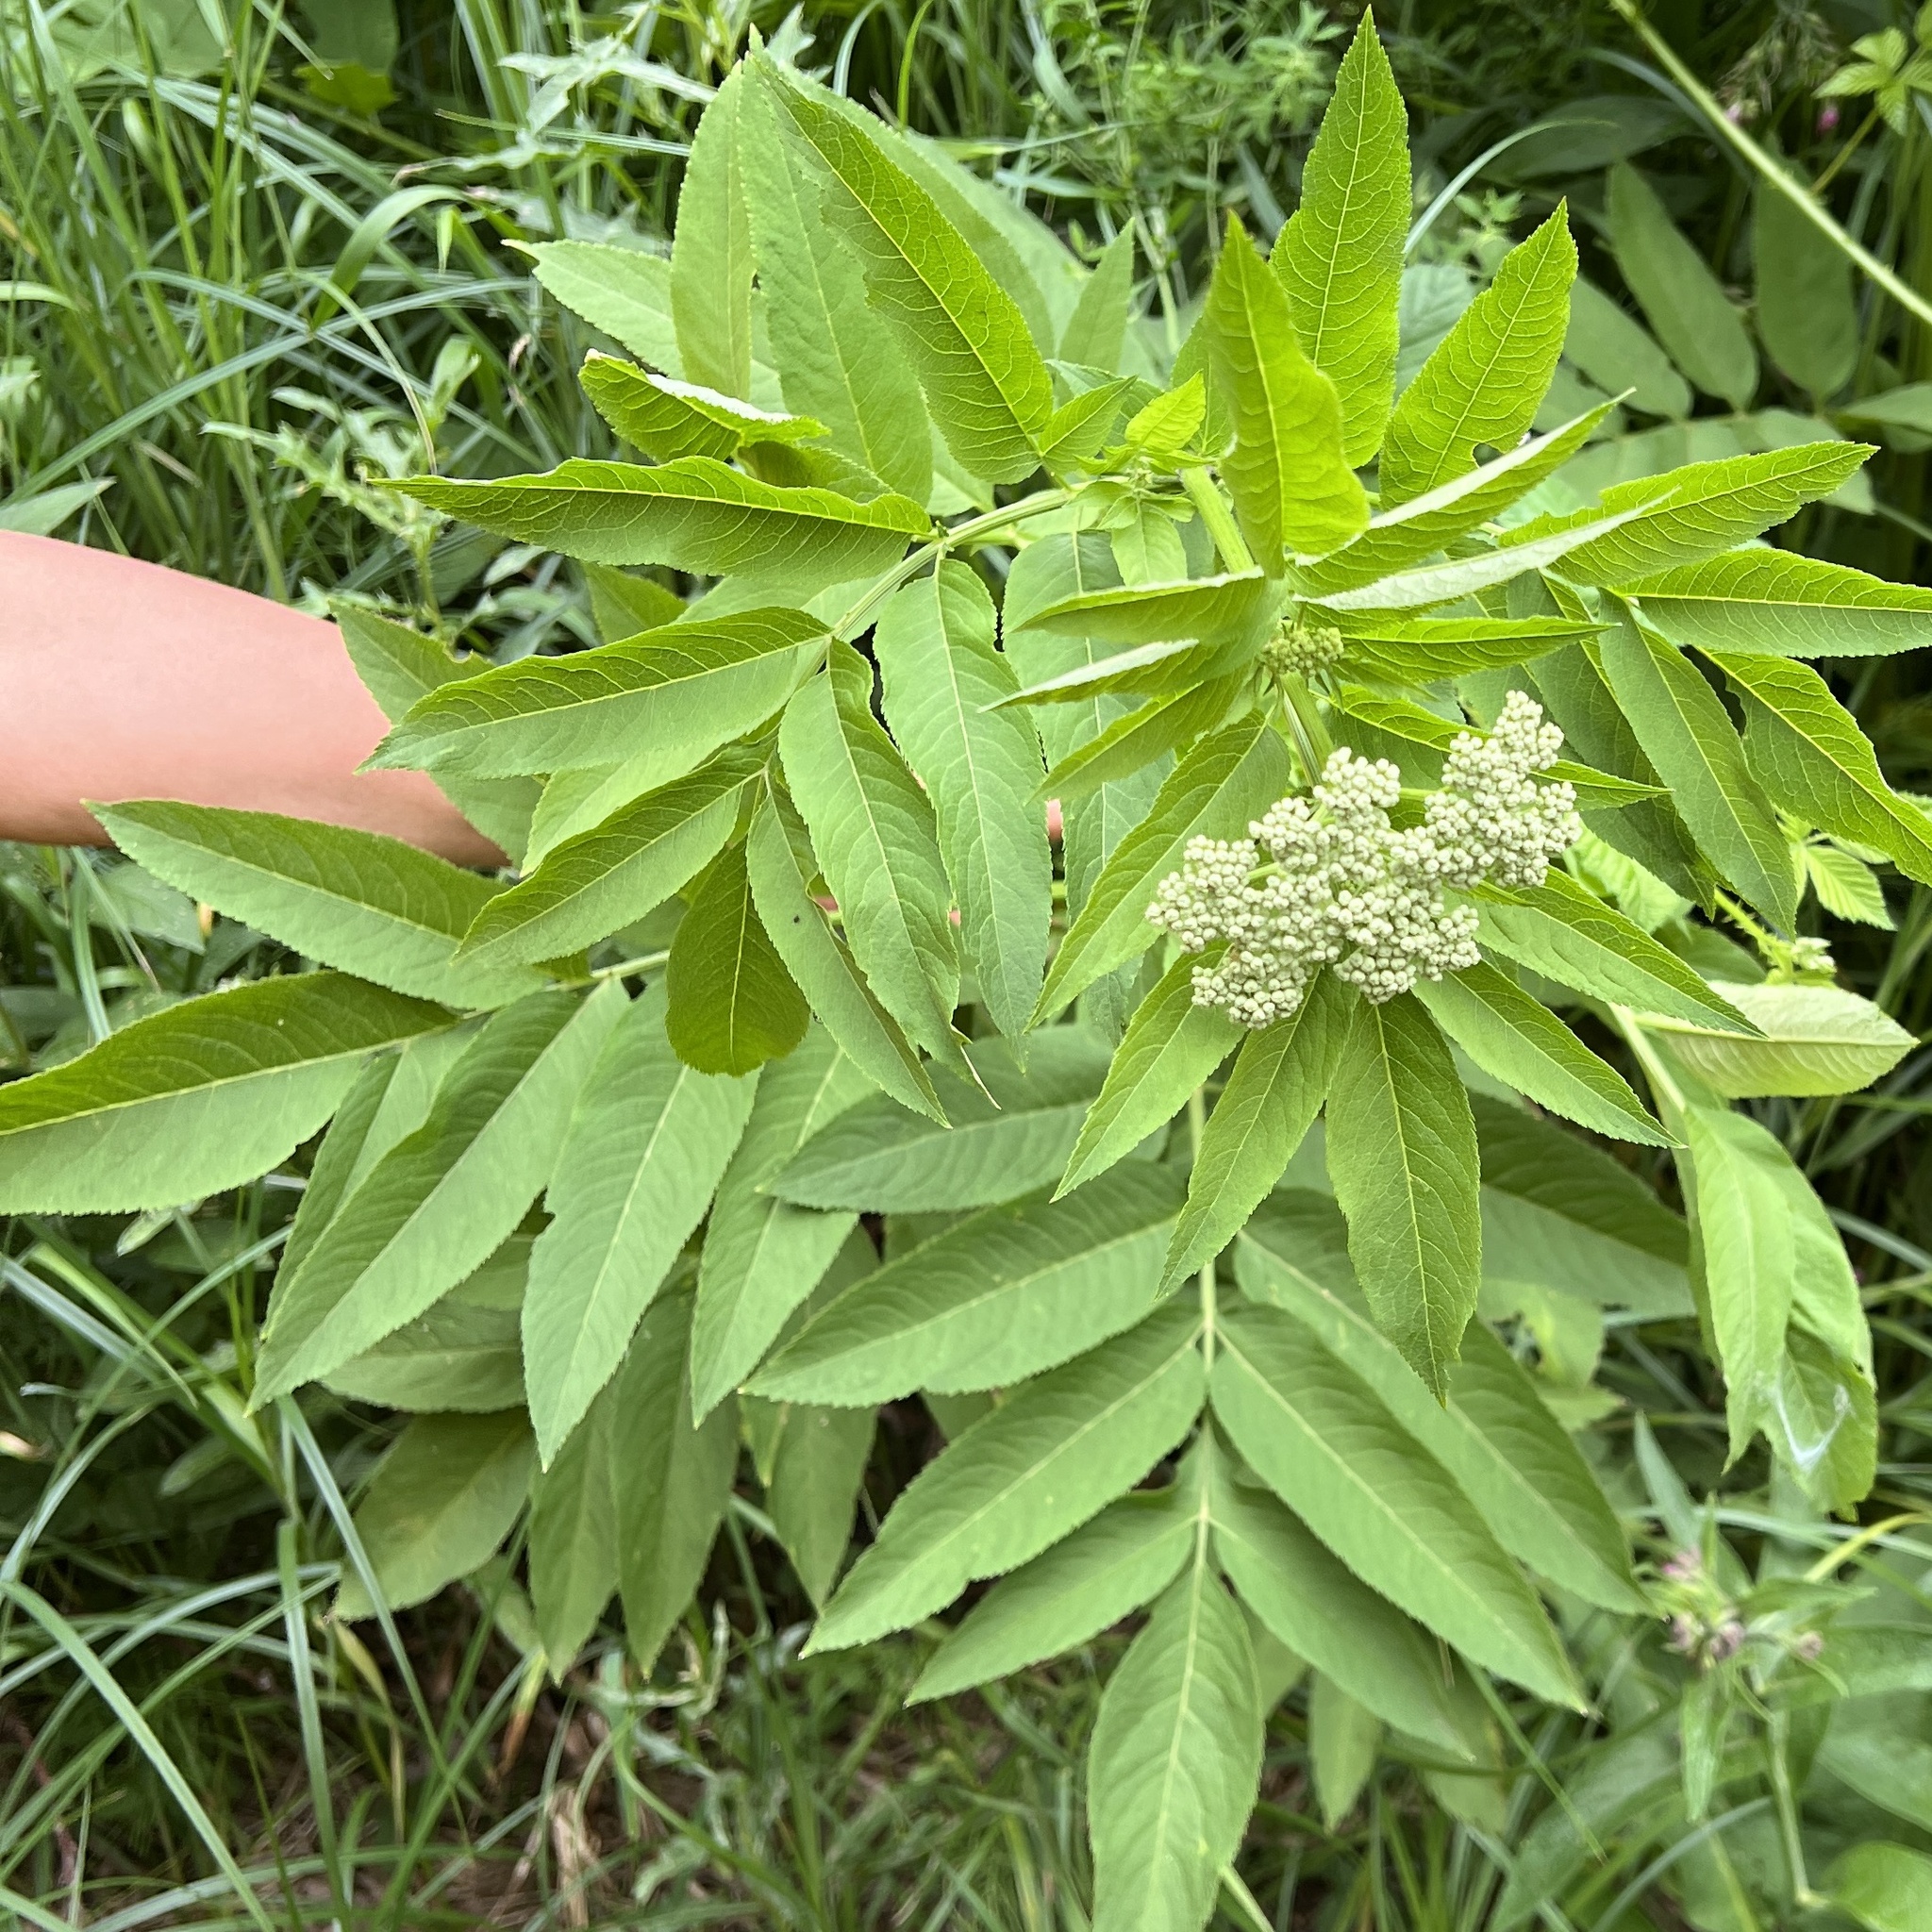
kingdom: Plantae
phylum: Tracheophyta
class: Magnoliopsida
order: Dipsacales
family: Viburnaceae
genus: Sambucus
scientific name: Sambucus ebulus
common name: Dwarf elder
